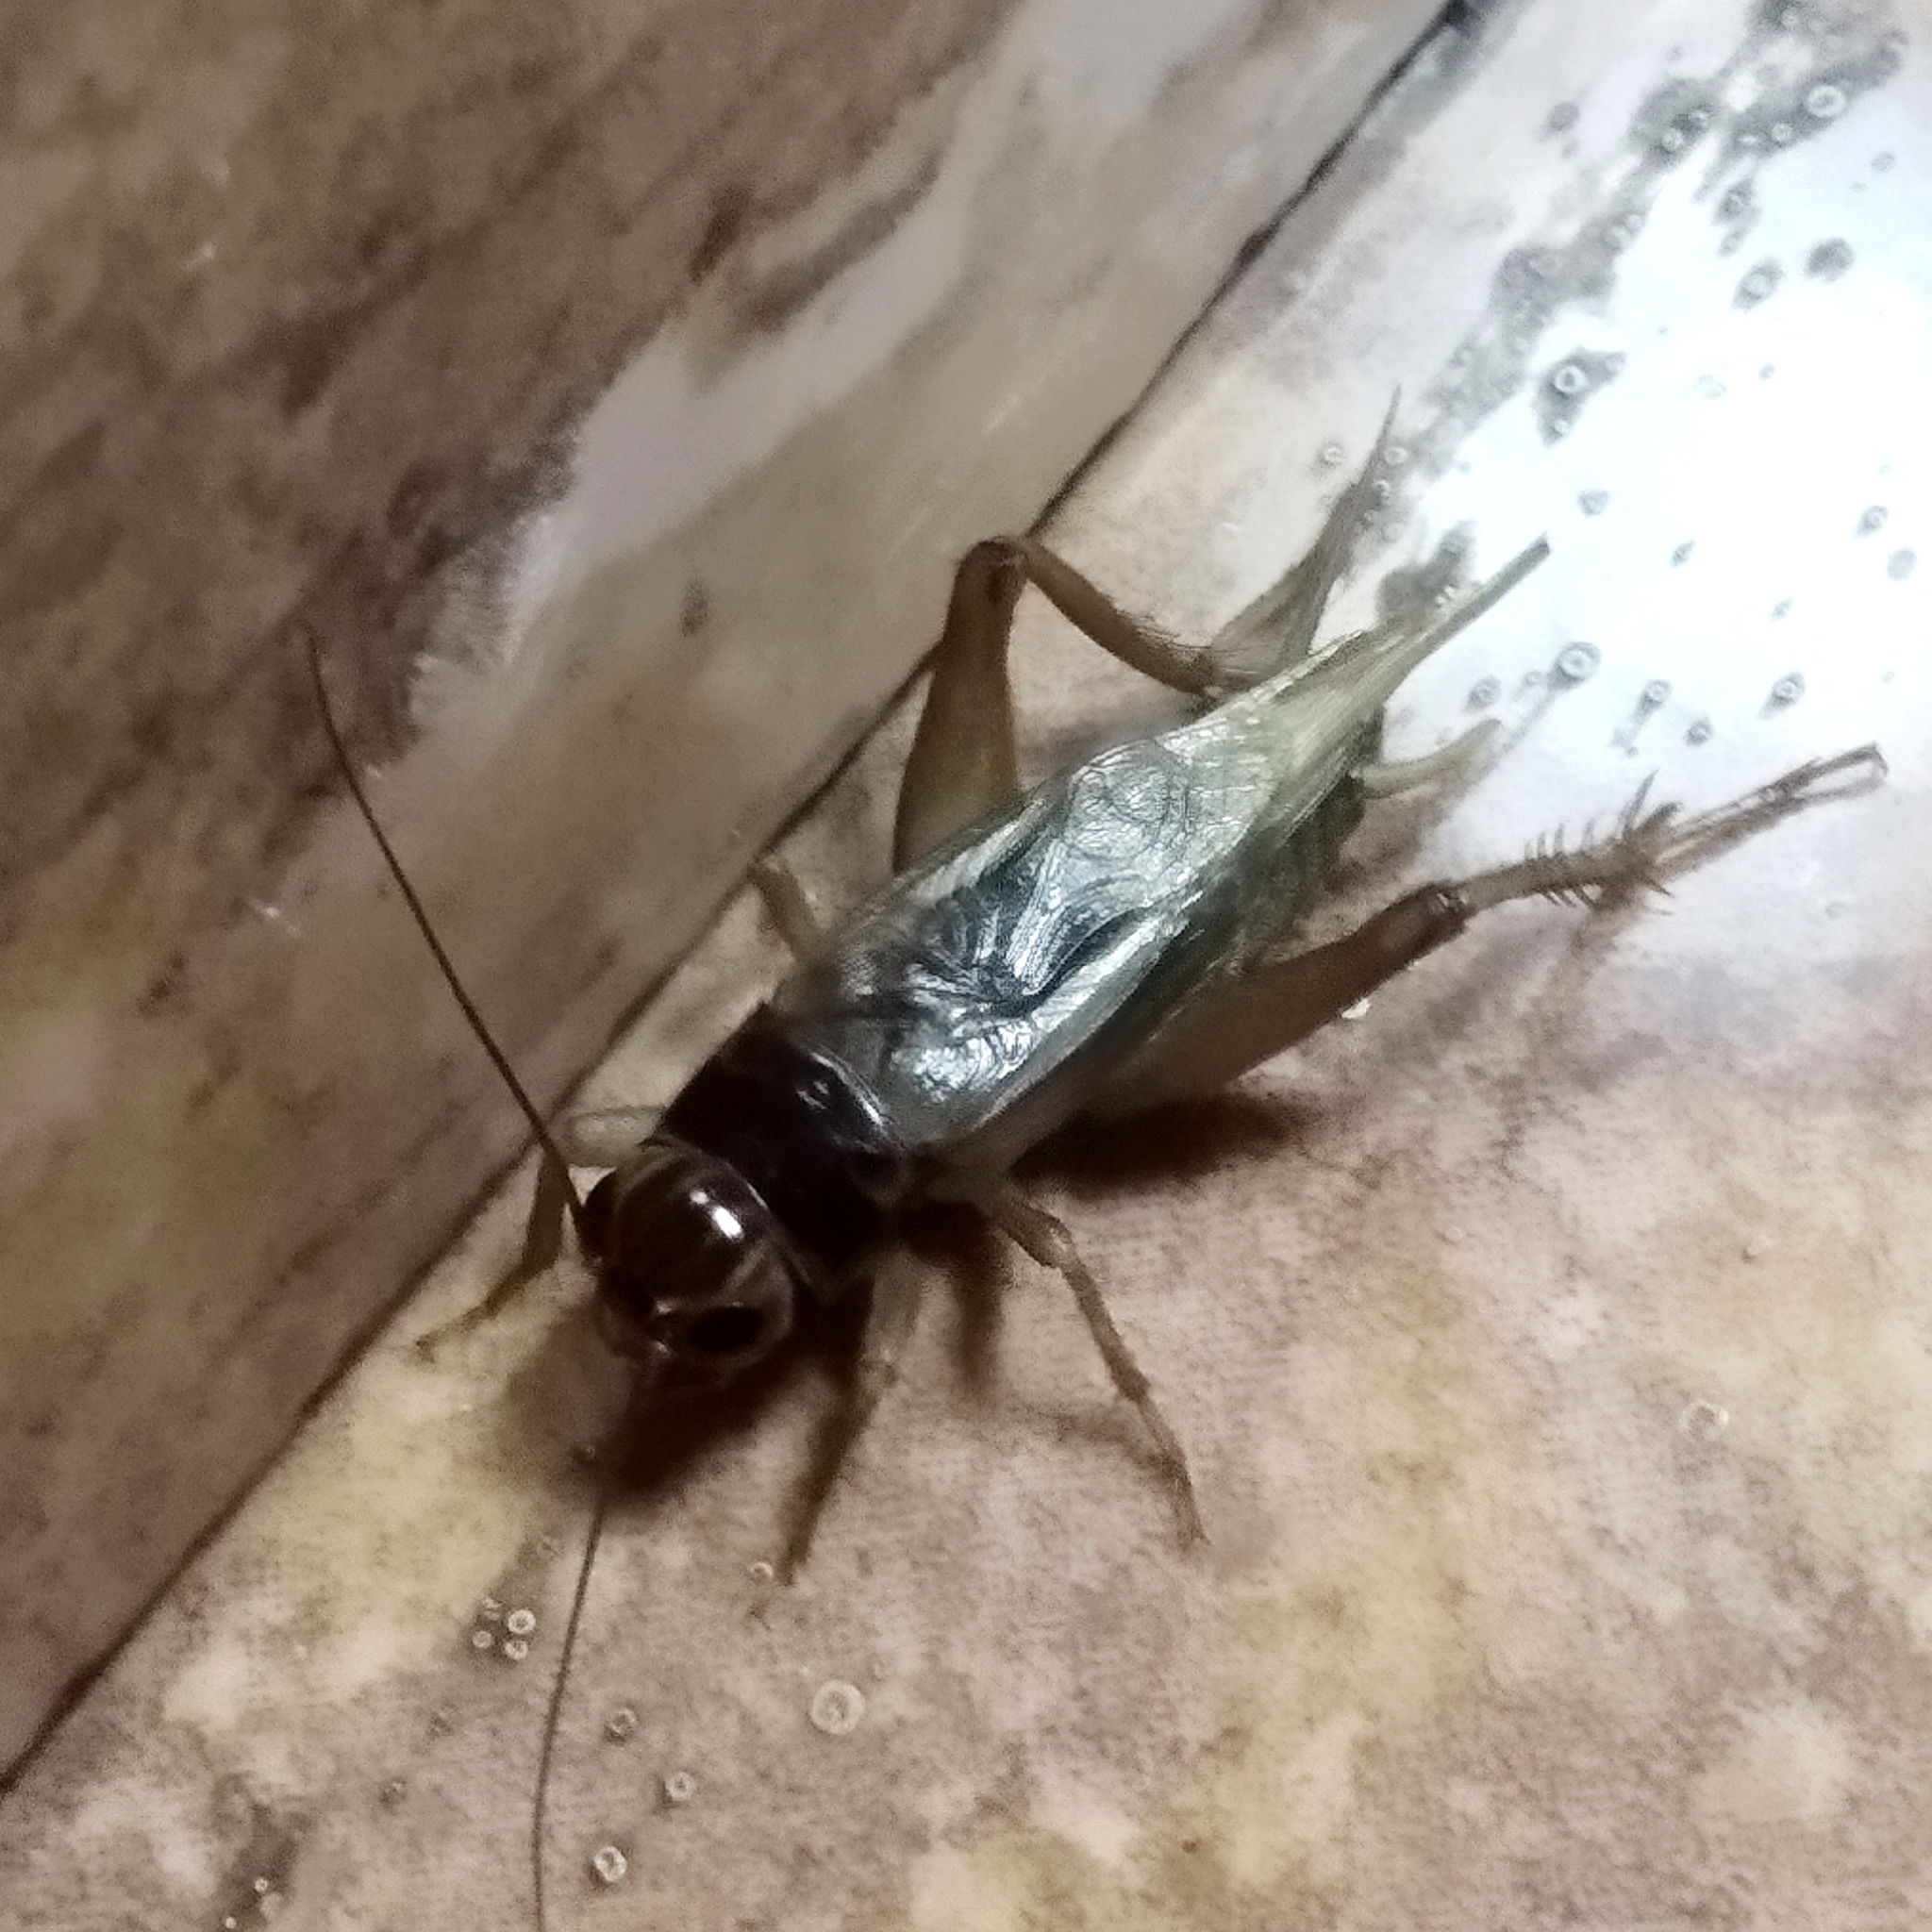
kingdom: Animalia
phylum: Arthropoda
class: Insecta
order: Orthoptera
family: Gryllidae
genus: Teleogryllus
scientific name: Teleogryllus occipitalis
